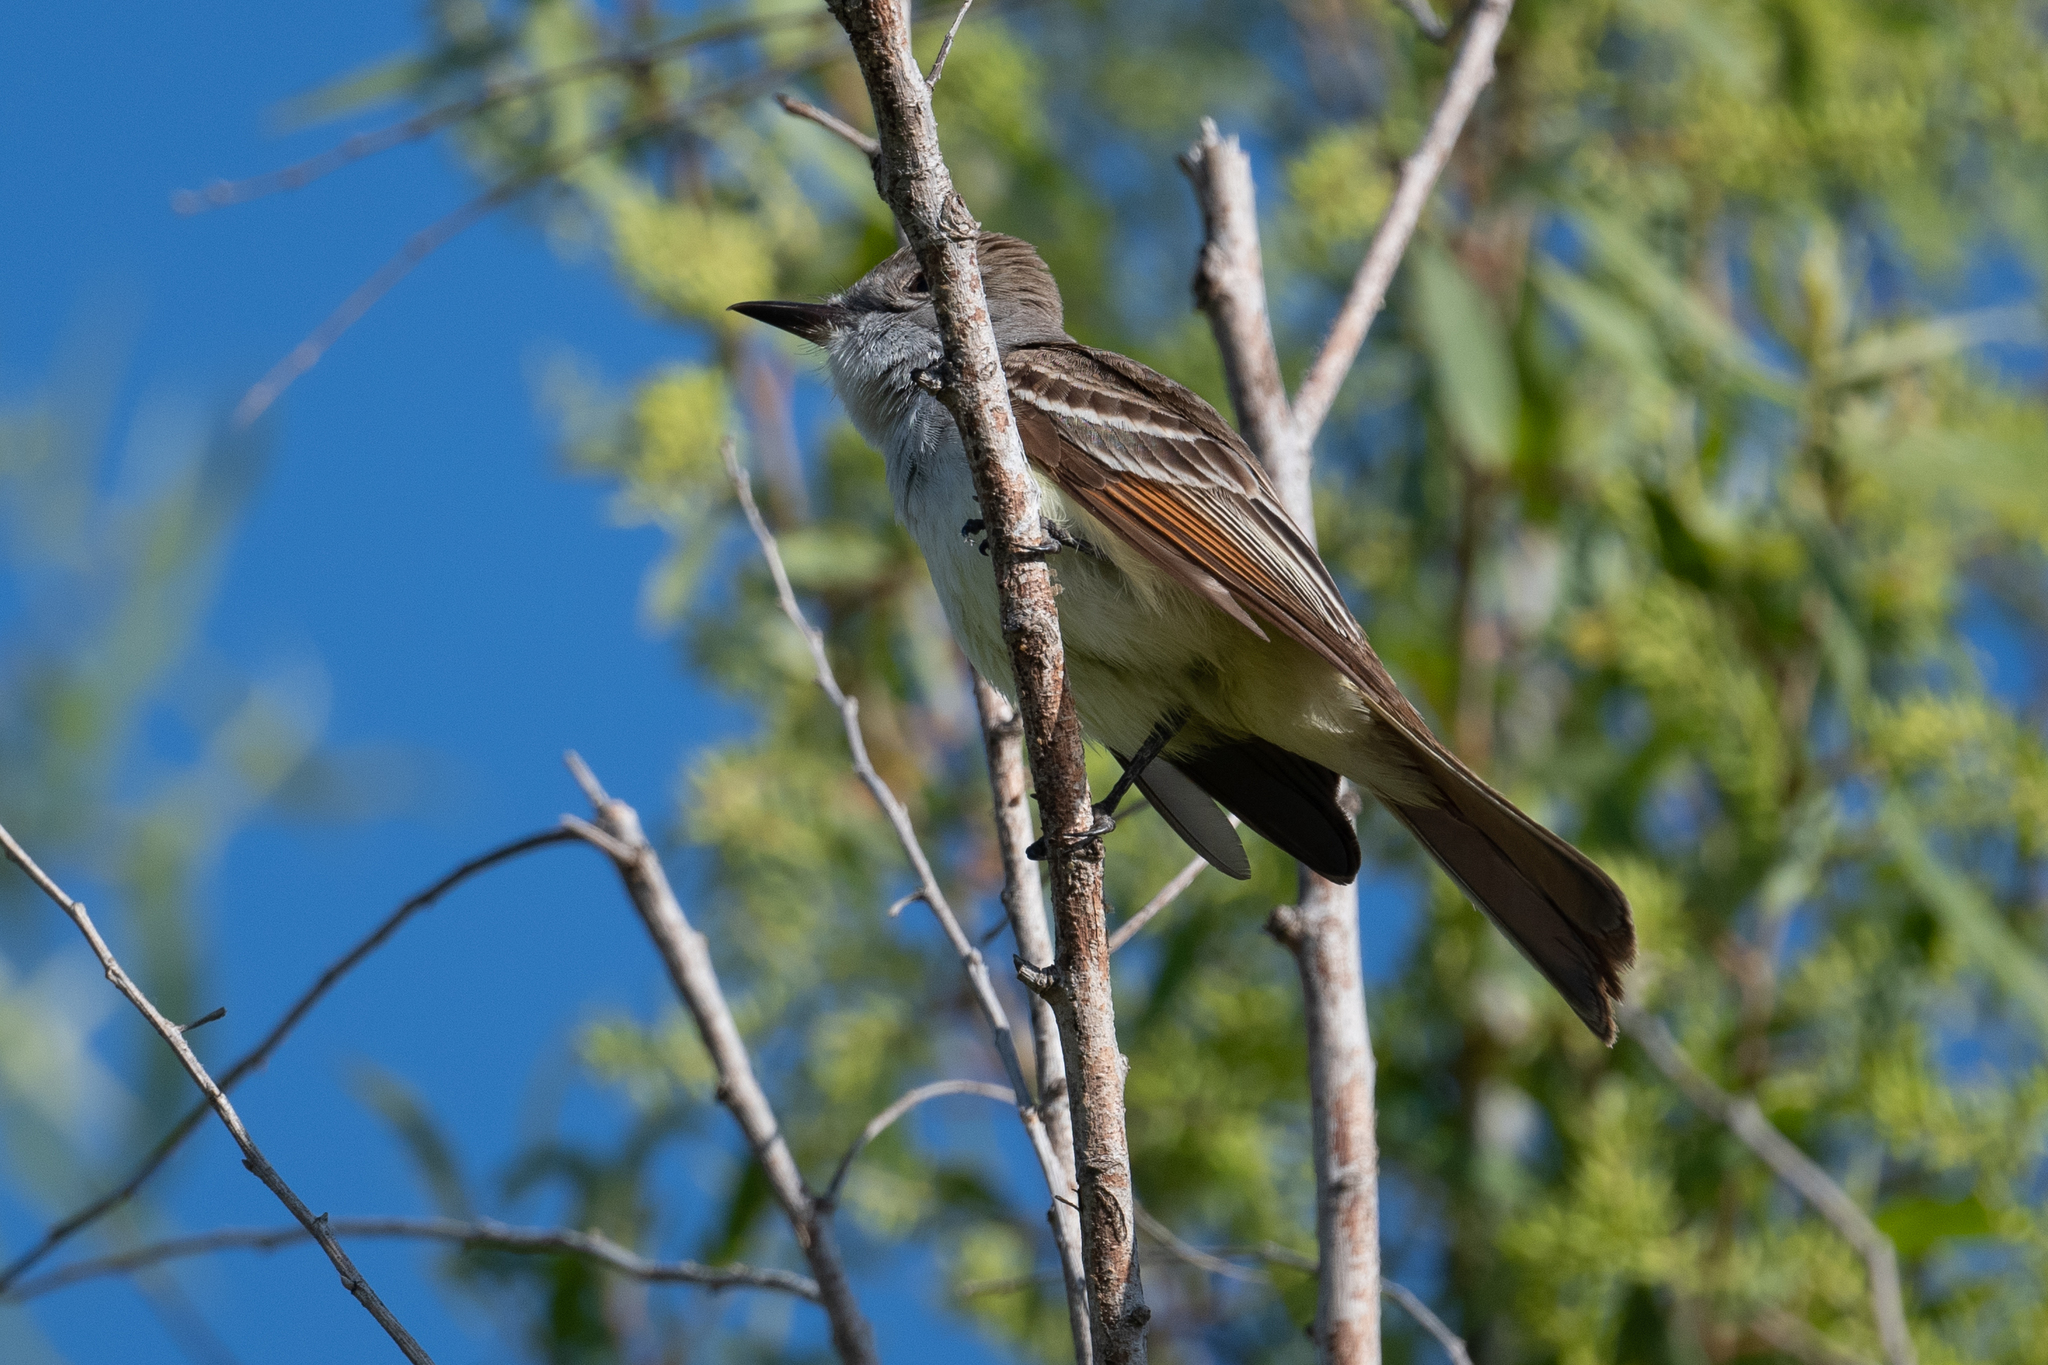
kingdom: Animalia
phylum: Chordata
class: Aves
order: Passeriformes
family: Tyrannidae
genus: Myiarchus
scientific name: Myiarchus cinerascens
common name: Ash-throated flycatcher
